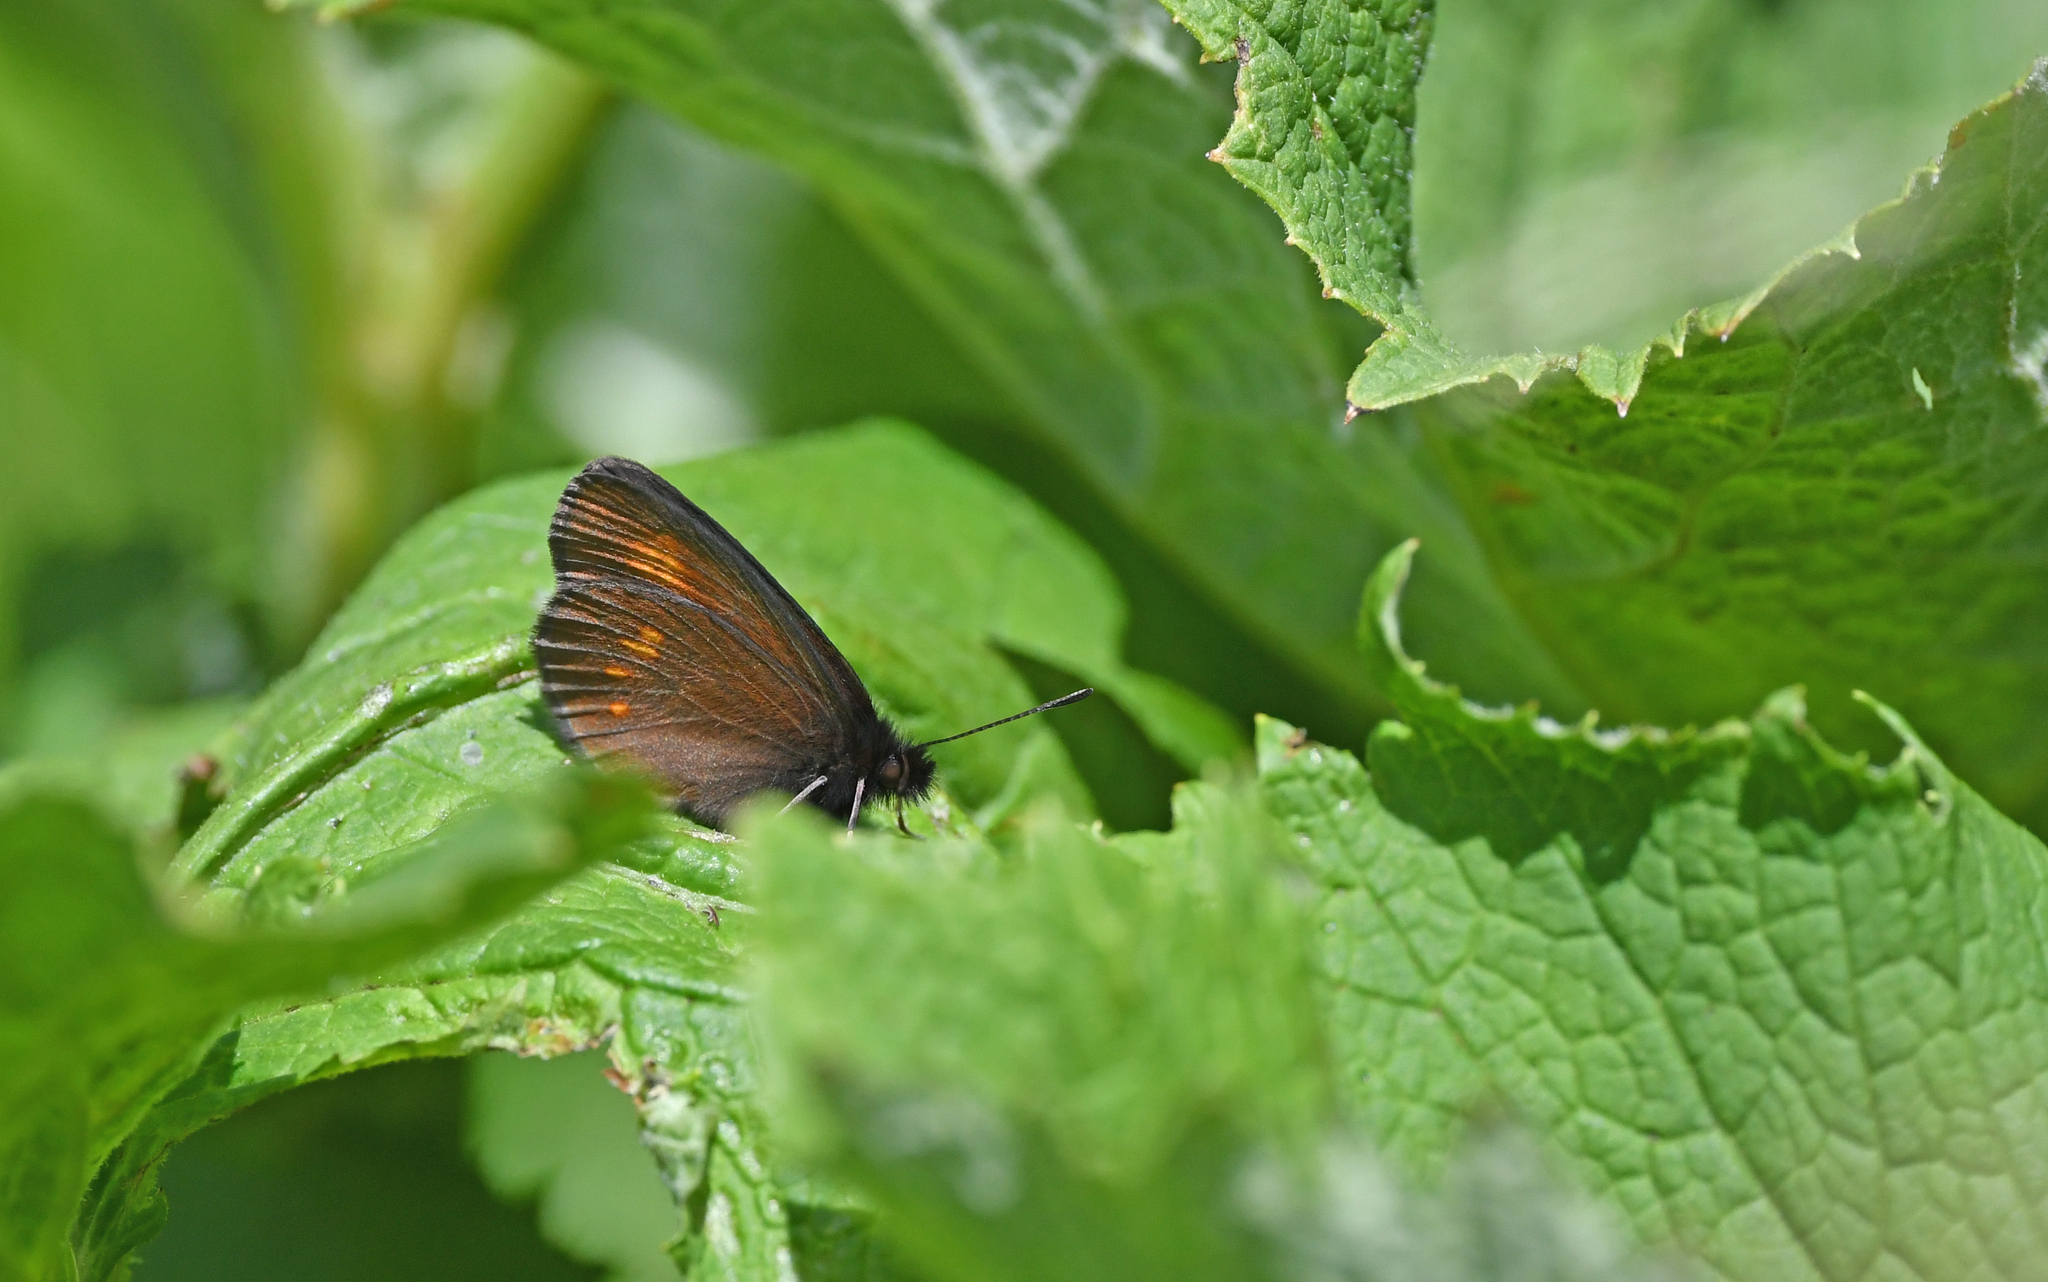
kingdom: Animalia
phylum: Arthropoda
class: Insecta
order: Lepidoptera
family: Nymphalidae
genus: Erebia
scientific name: Erebia eriphyle
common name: Eriphyle ringlet
